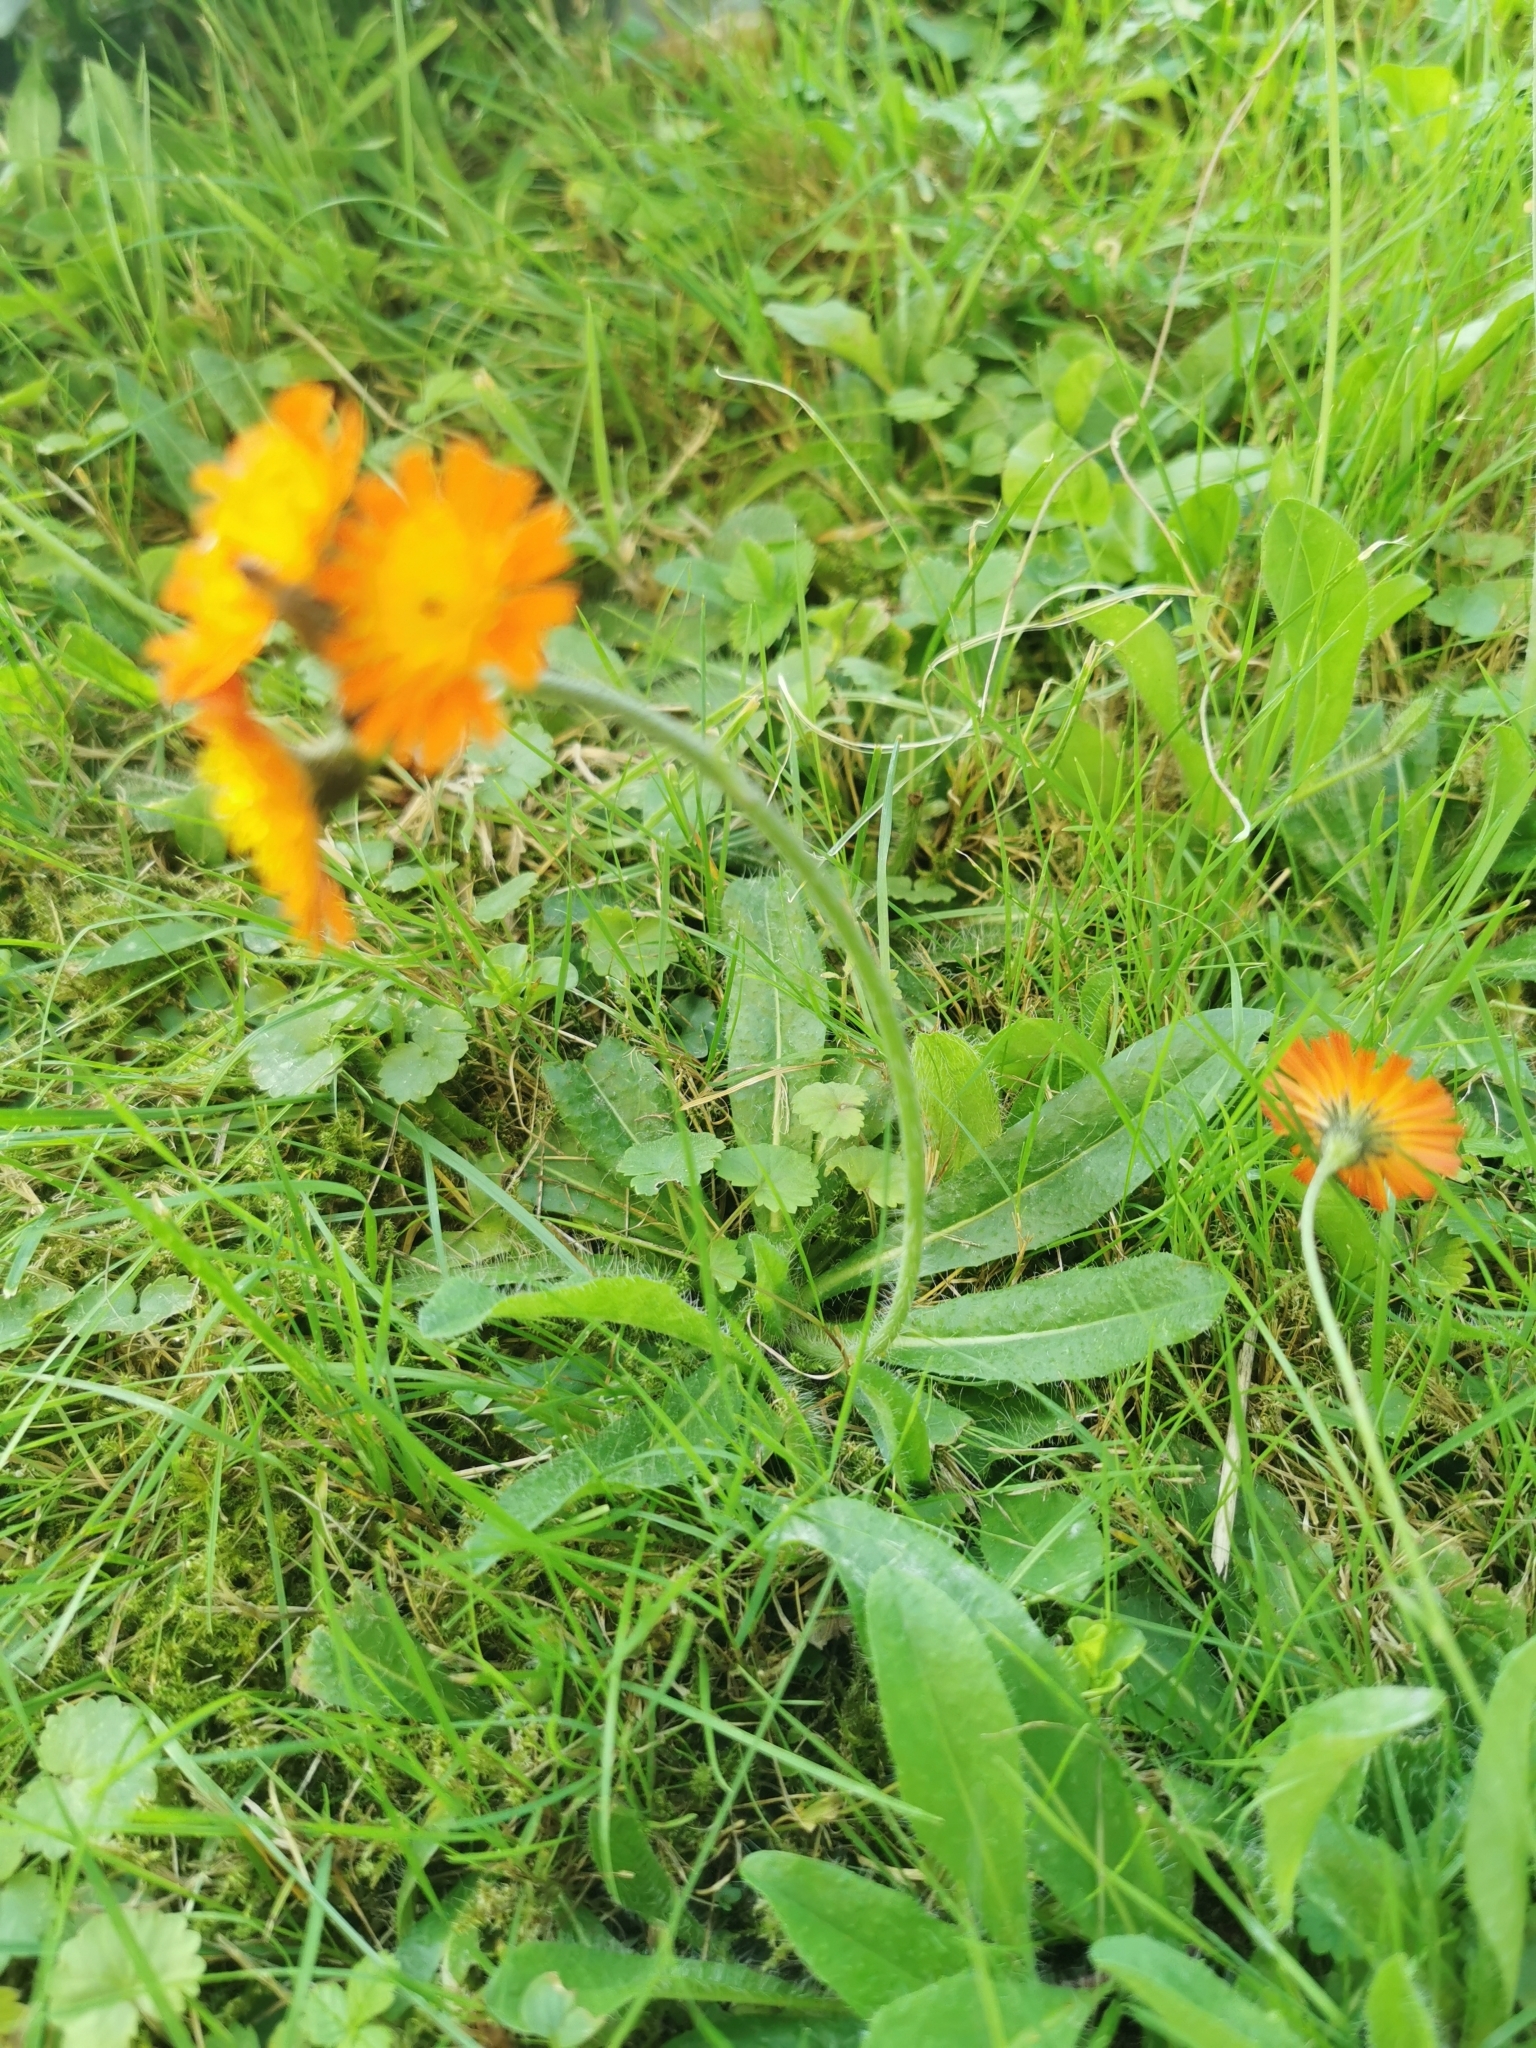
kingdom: Plantae
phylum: Tracheophyta
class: Magnoliopsida
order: Asterales
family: Asteraceae
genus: Pilosella
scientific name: Pilosella aurantiaca
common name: Fox-and-cubs
